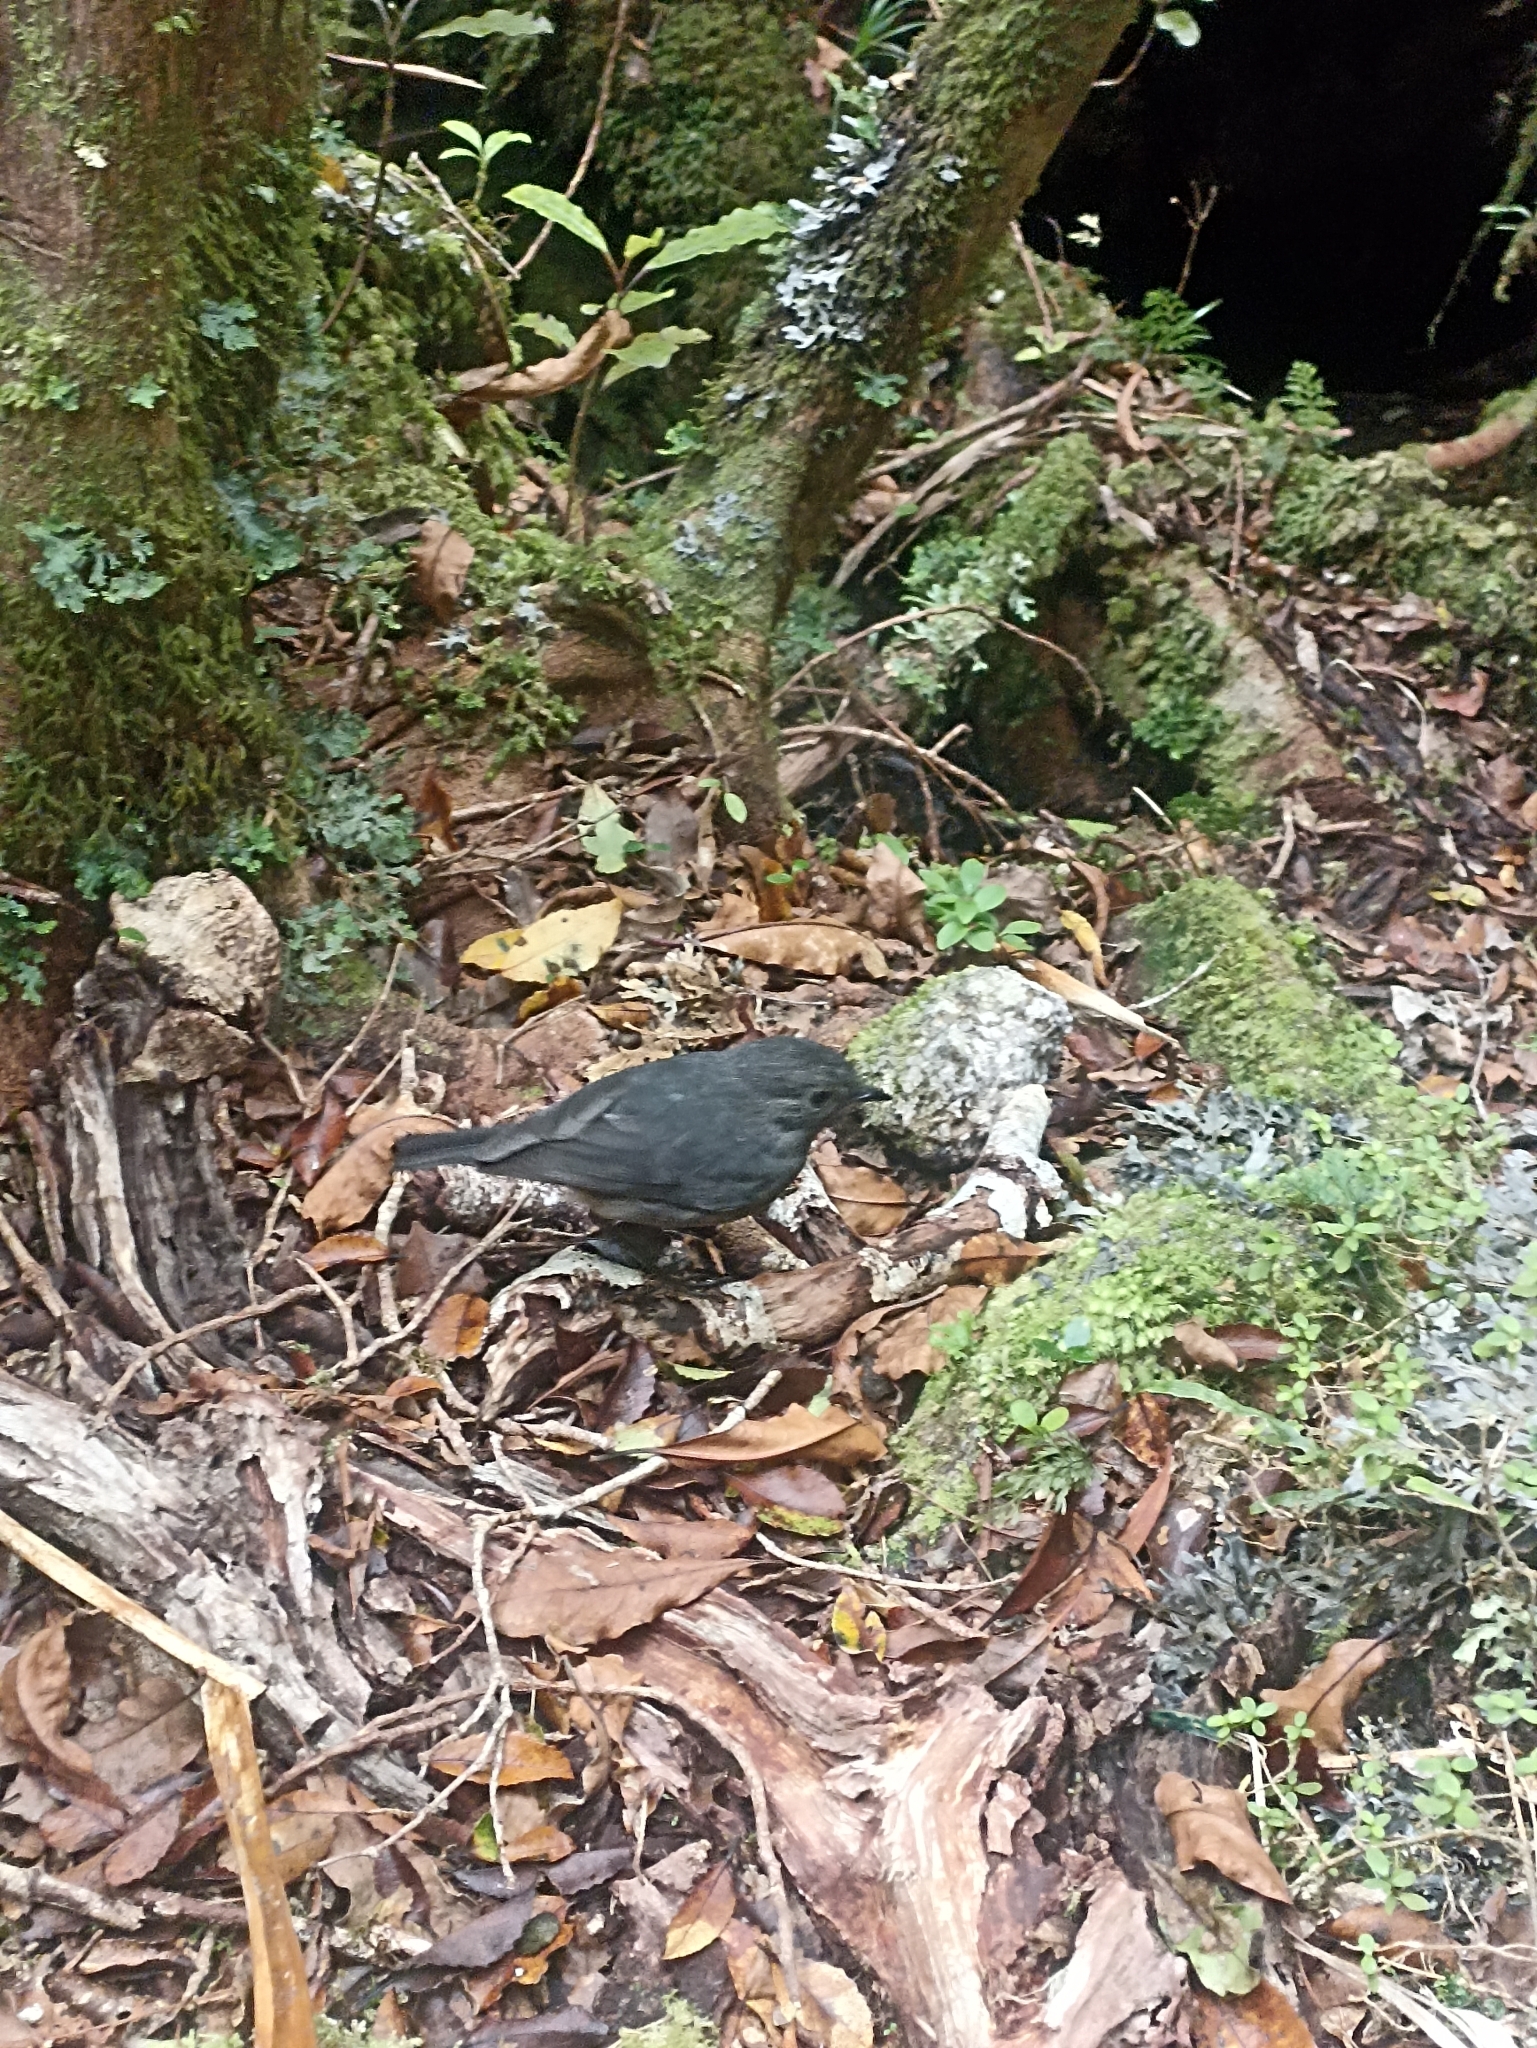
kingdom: Animalia
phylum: Chordata
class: Aves
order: Passeriformes
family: Petroicidae
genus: Petroica
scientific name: Petroica australis
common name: New zealand robin
